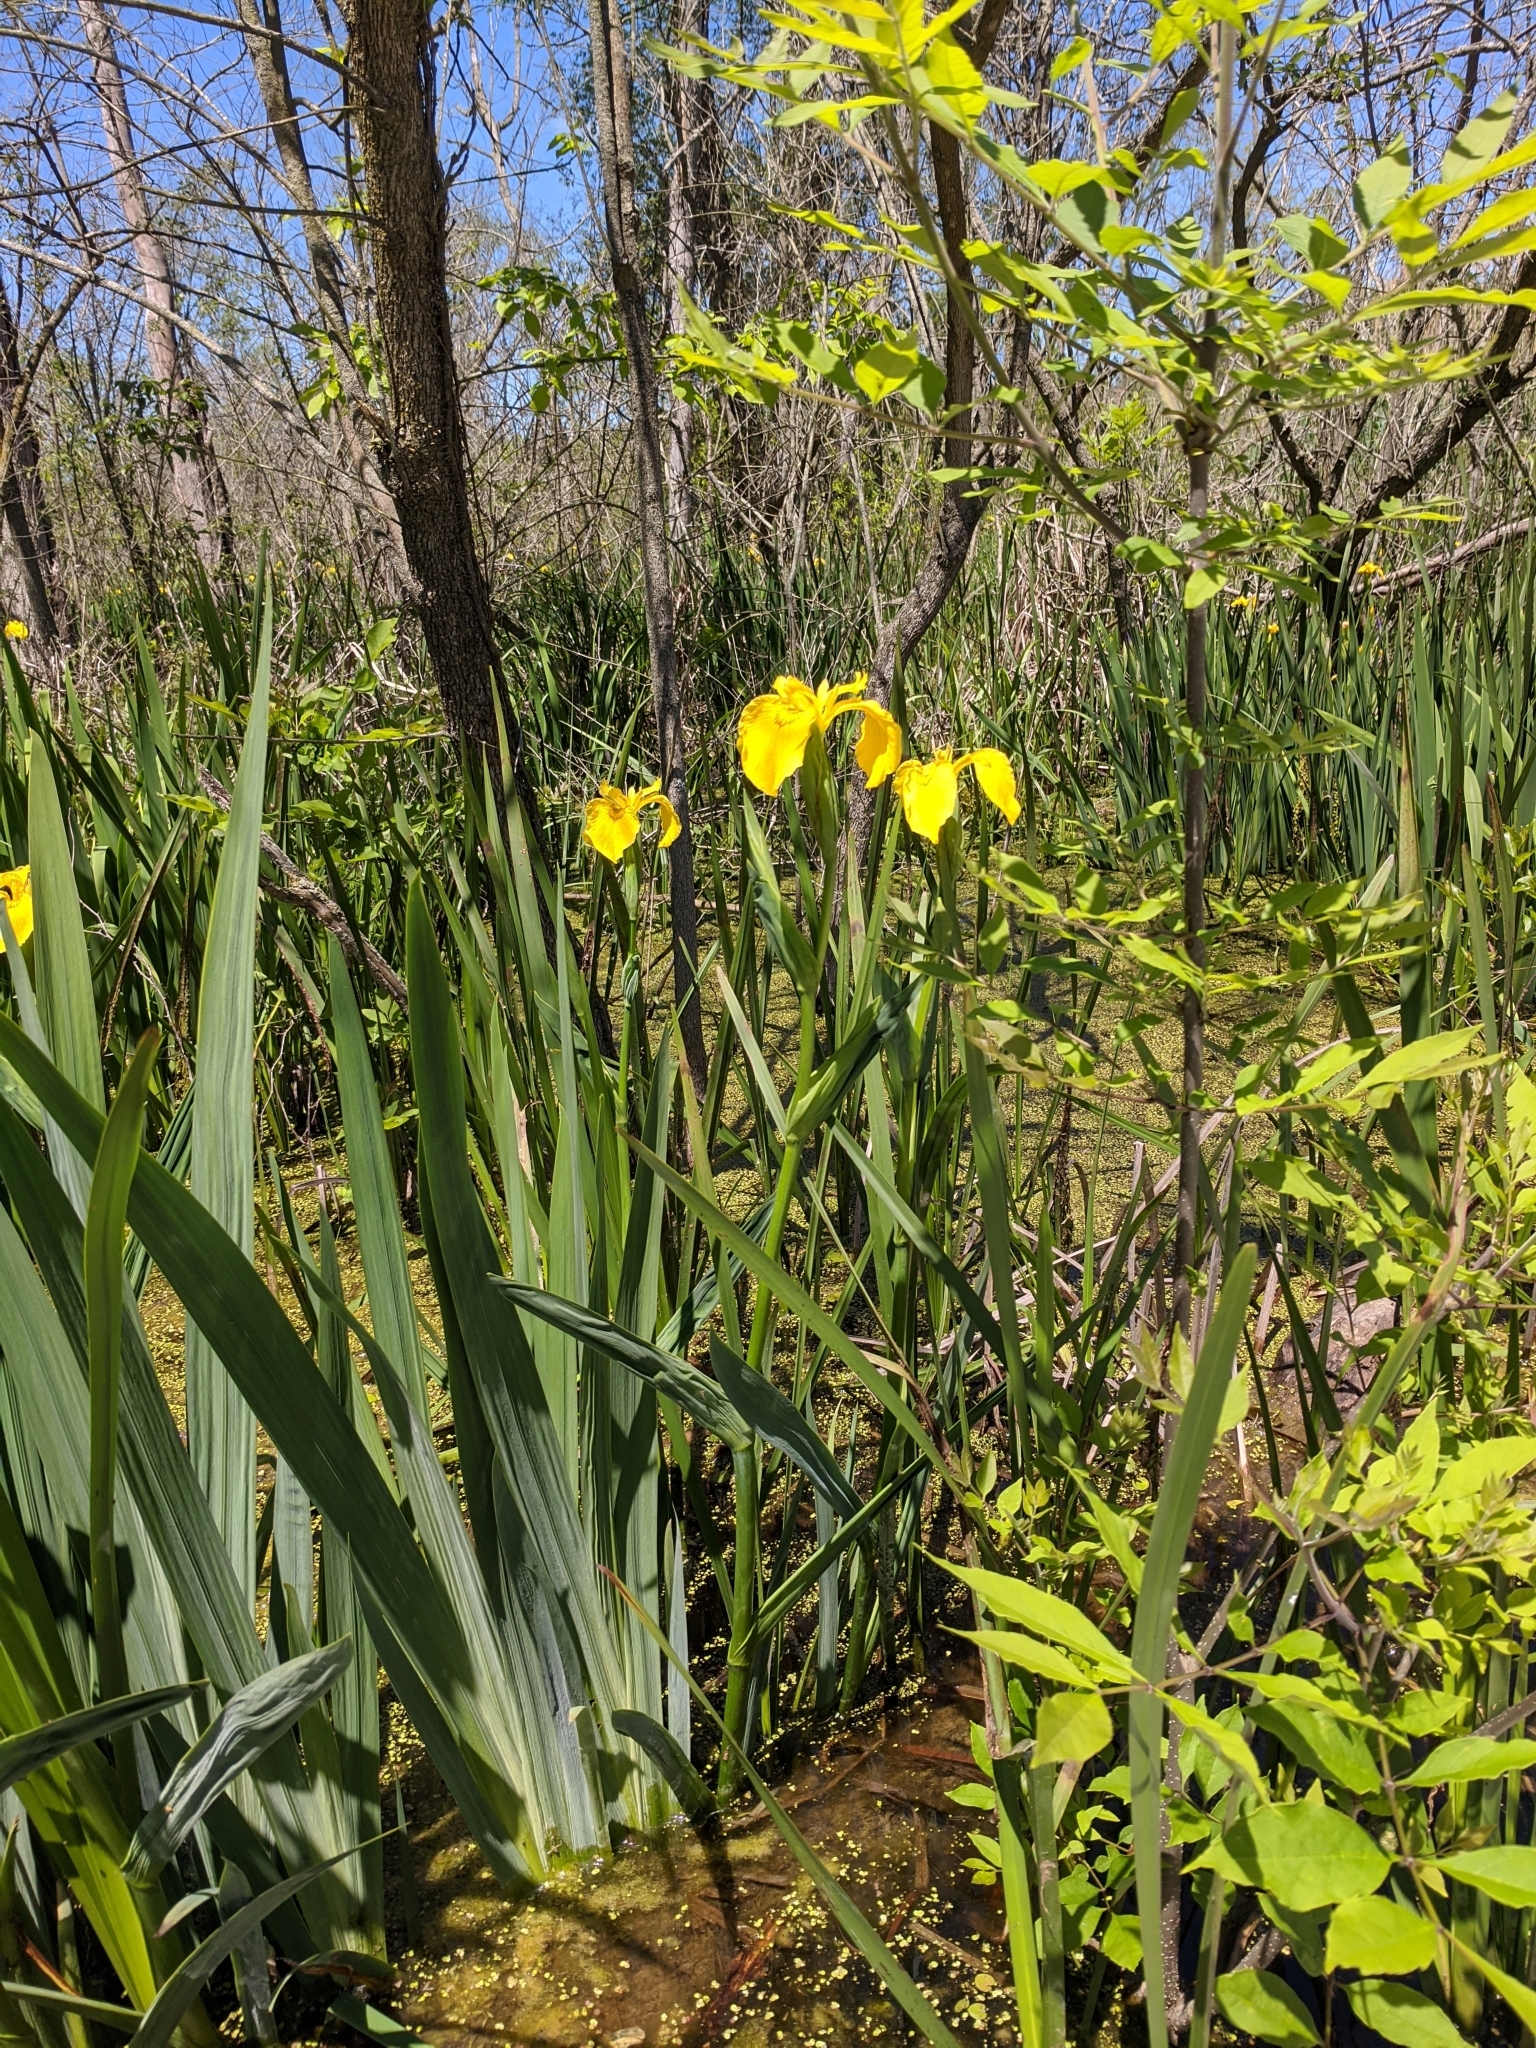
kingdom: Plantae
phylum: Tracheophyta
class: Liliopsida
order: Asparagales
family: Iridaceae
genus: Iris
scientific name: Iris pseudacorus
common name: Yellow flag
